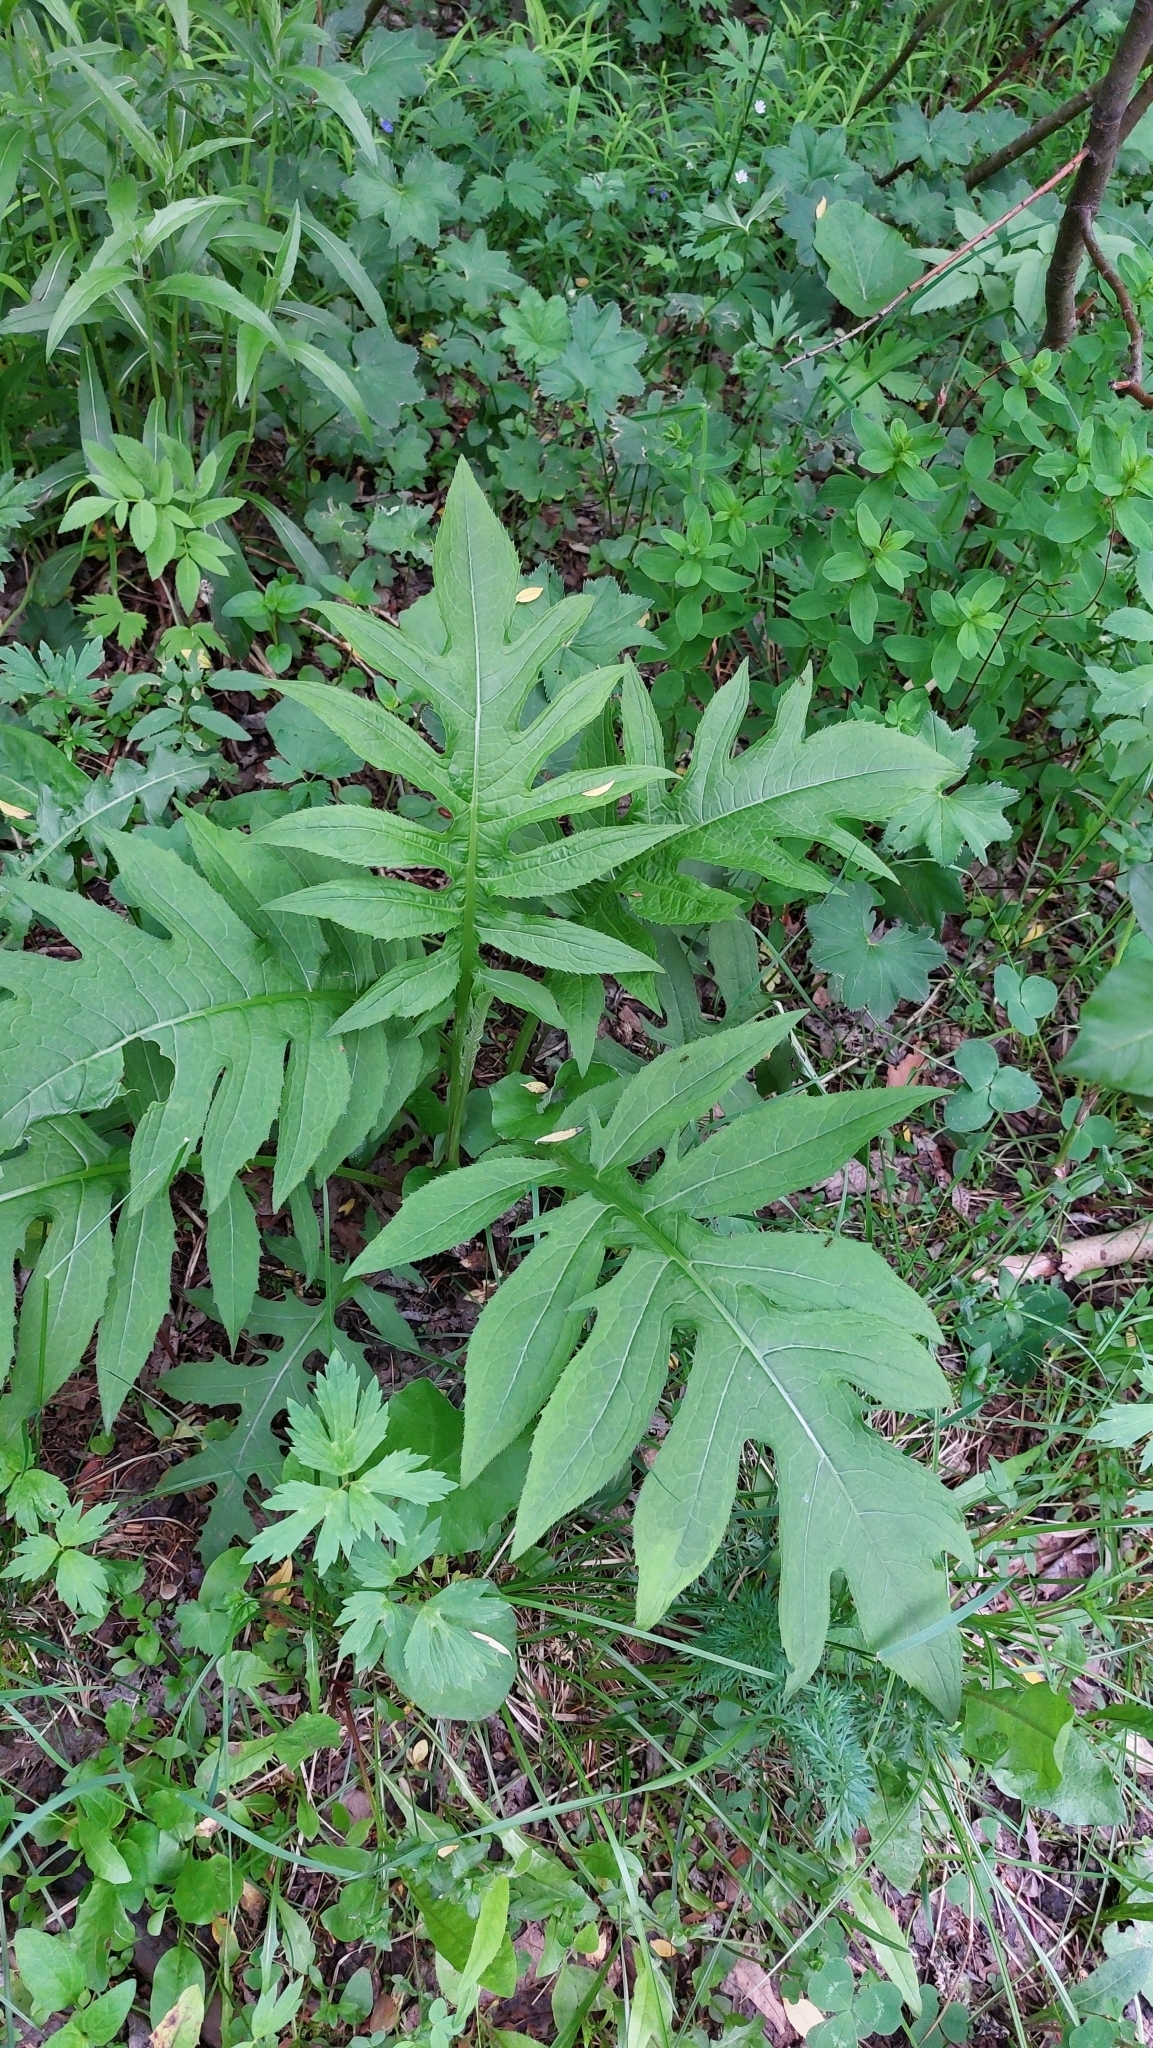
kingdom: Plantae
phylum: Tracheophyta
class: Magnoliopsida
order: Asterales
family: Asteraceae
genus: Cirsium
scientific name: Cirsium oleraceum
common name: Cabbage thistle
